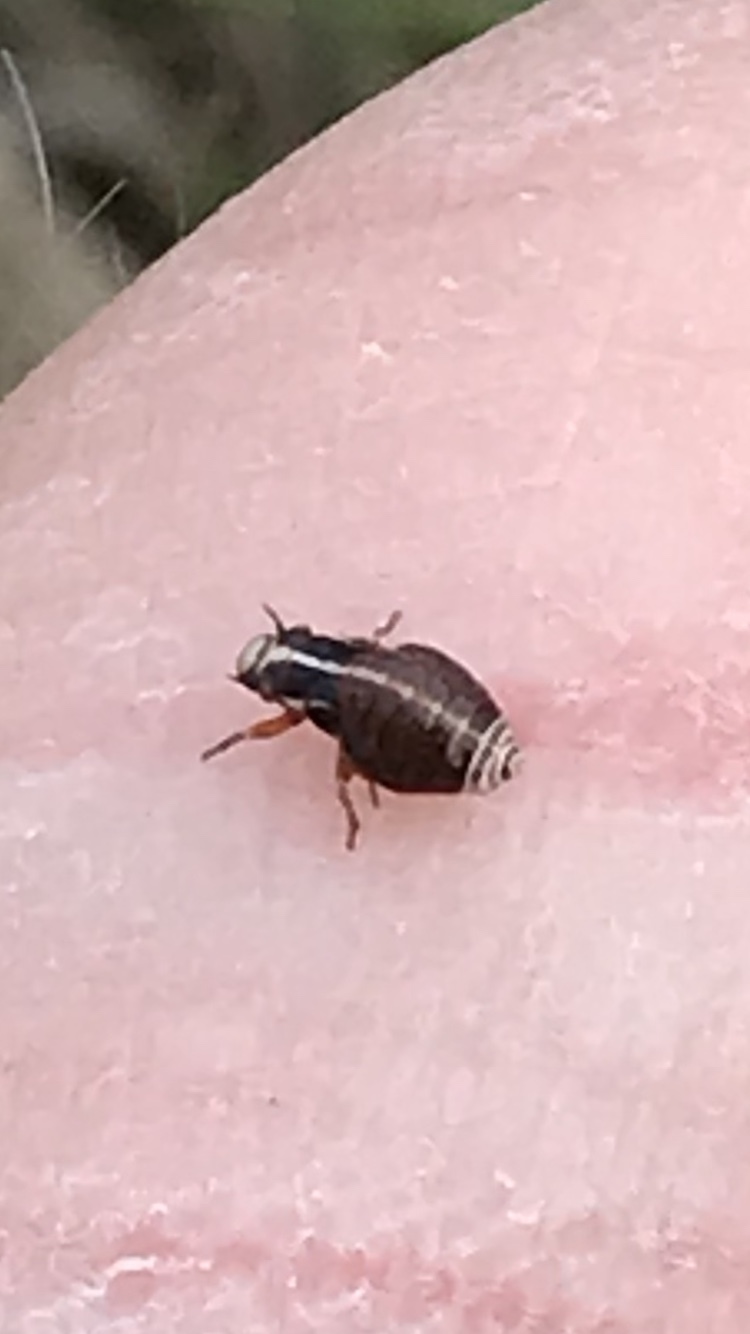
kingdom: Animalia
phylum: Arthropoda
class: Insecta
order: Hemiptera
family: Aphrophoridae
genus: Lepyronia
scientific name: Lepyronia gibbosa
